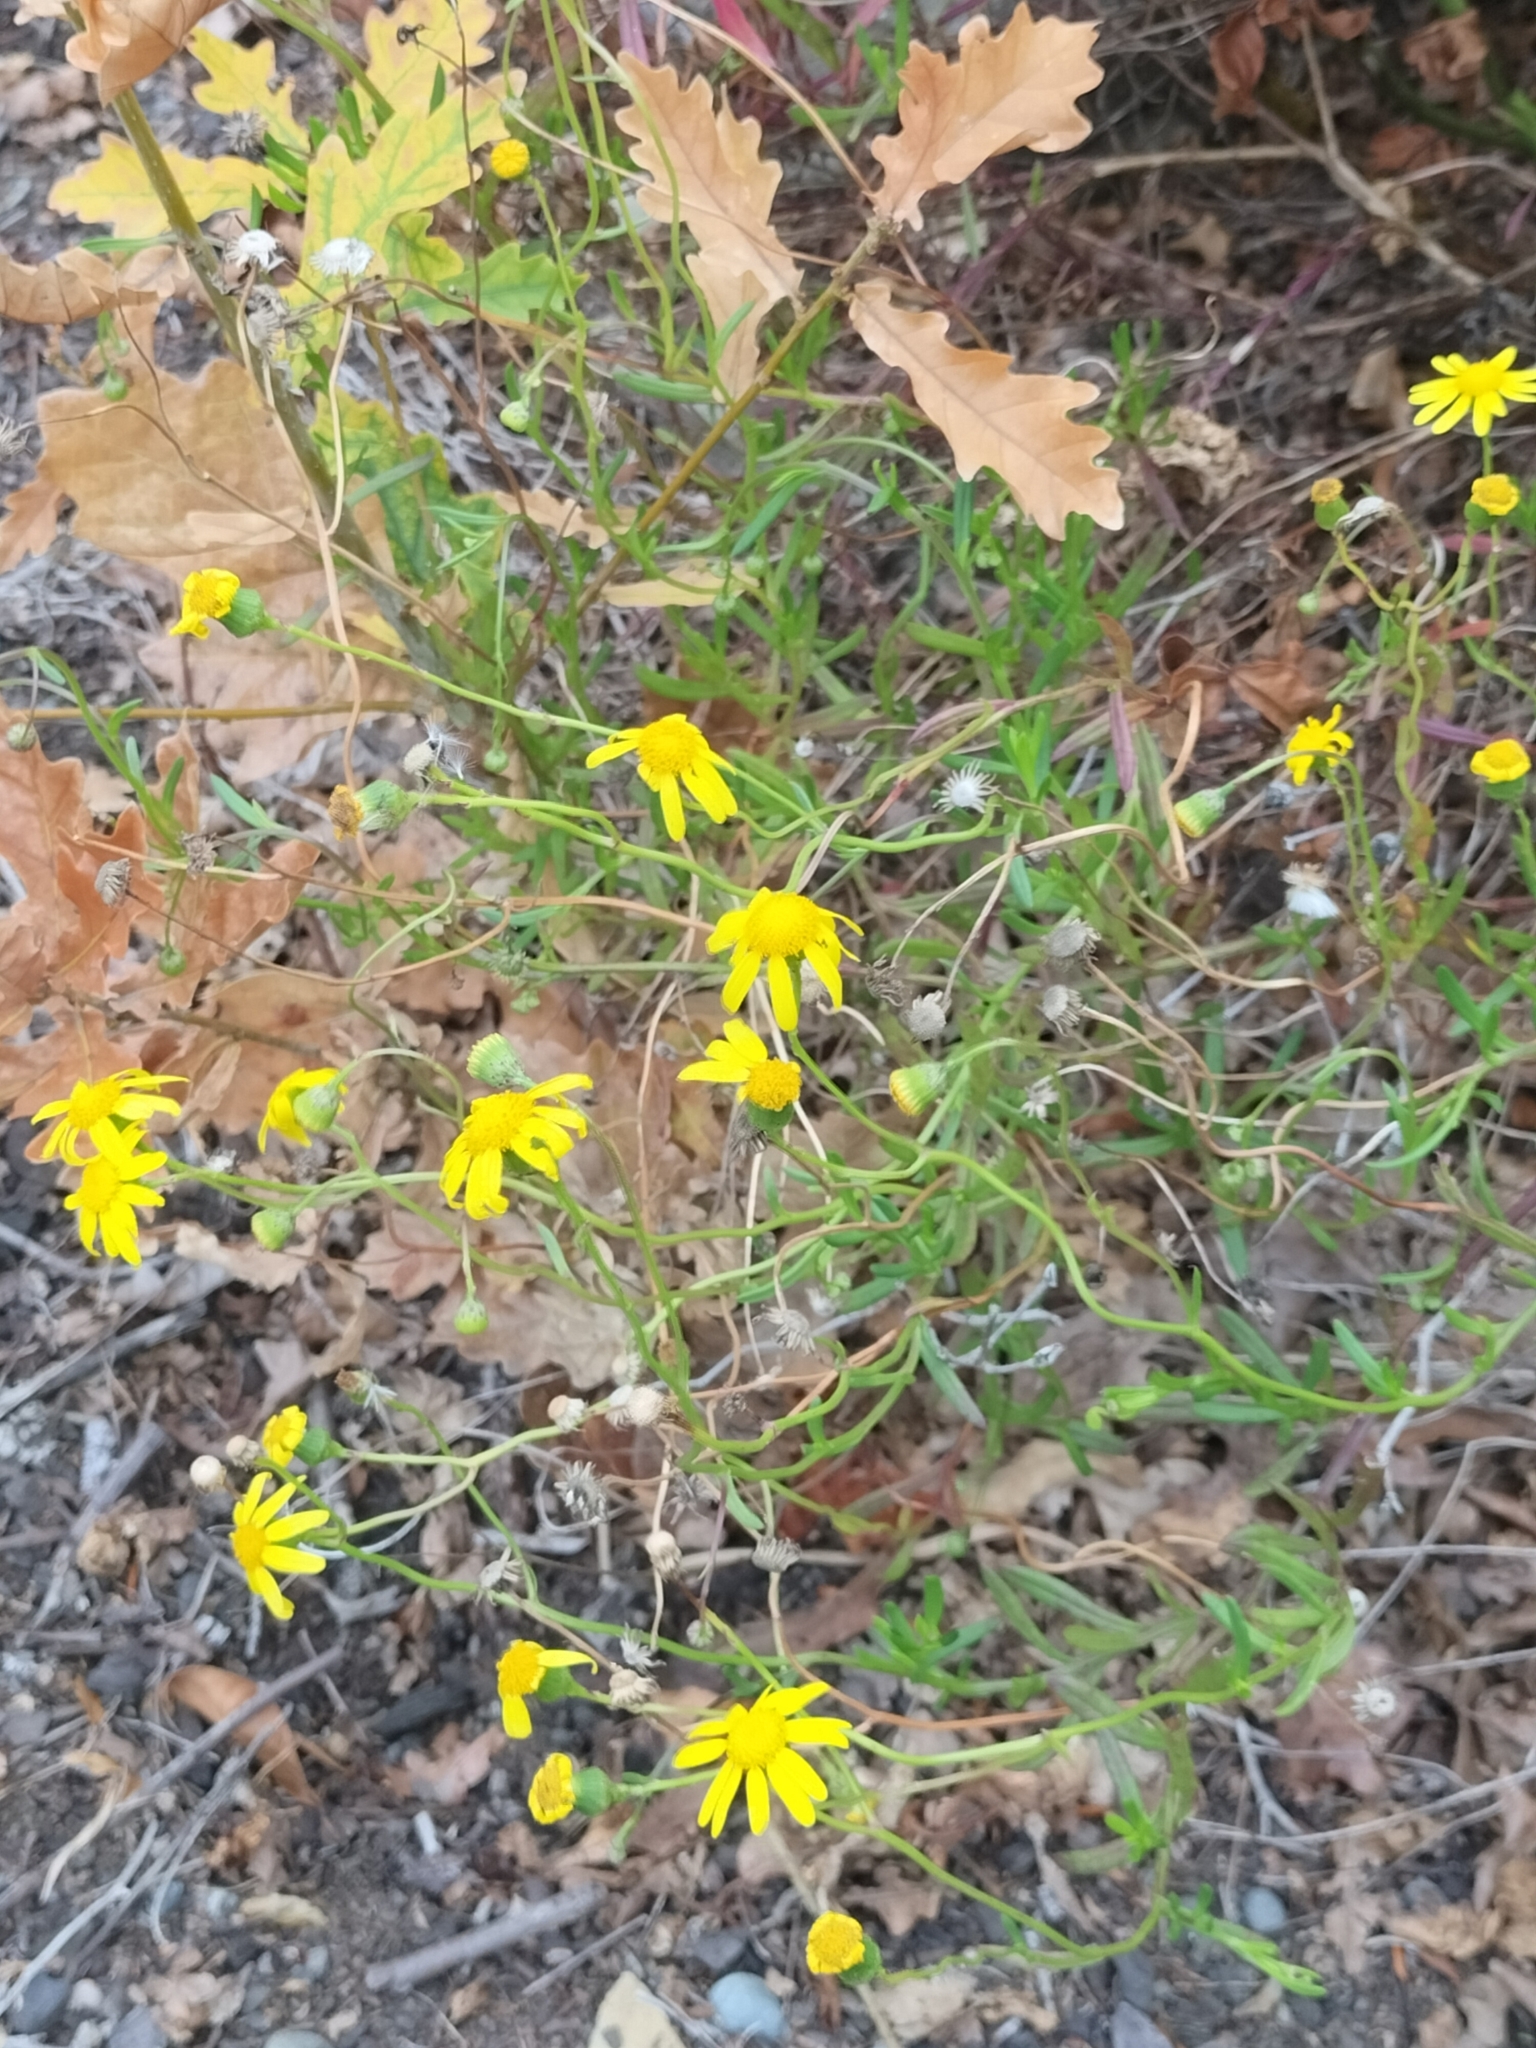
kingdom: Plantae
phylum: Tracheophyta
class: Magnoliopsida
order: Asterales
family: Asteraceae
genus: Senecio
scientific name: Senecio skirrhodon
